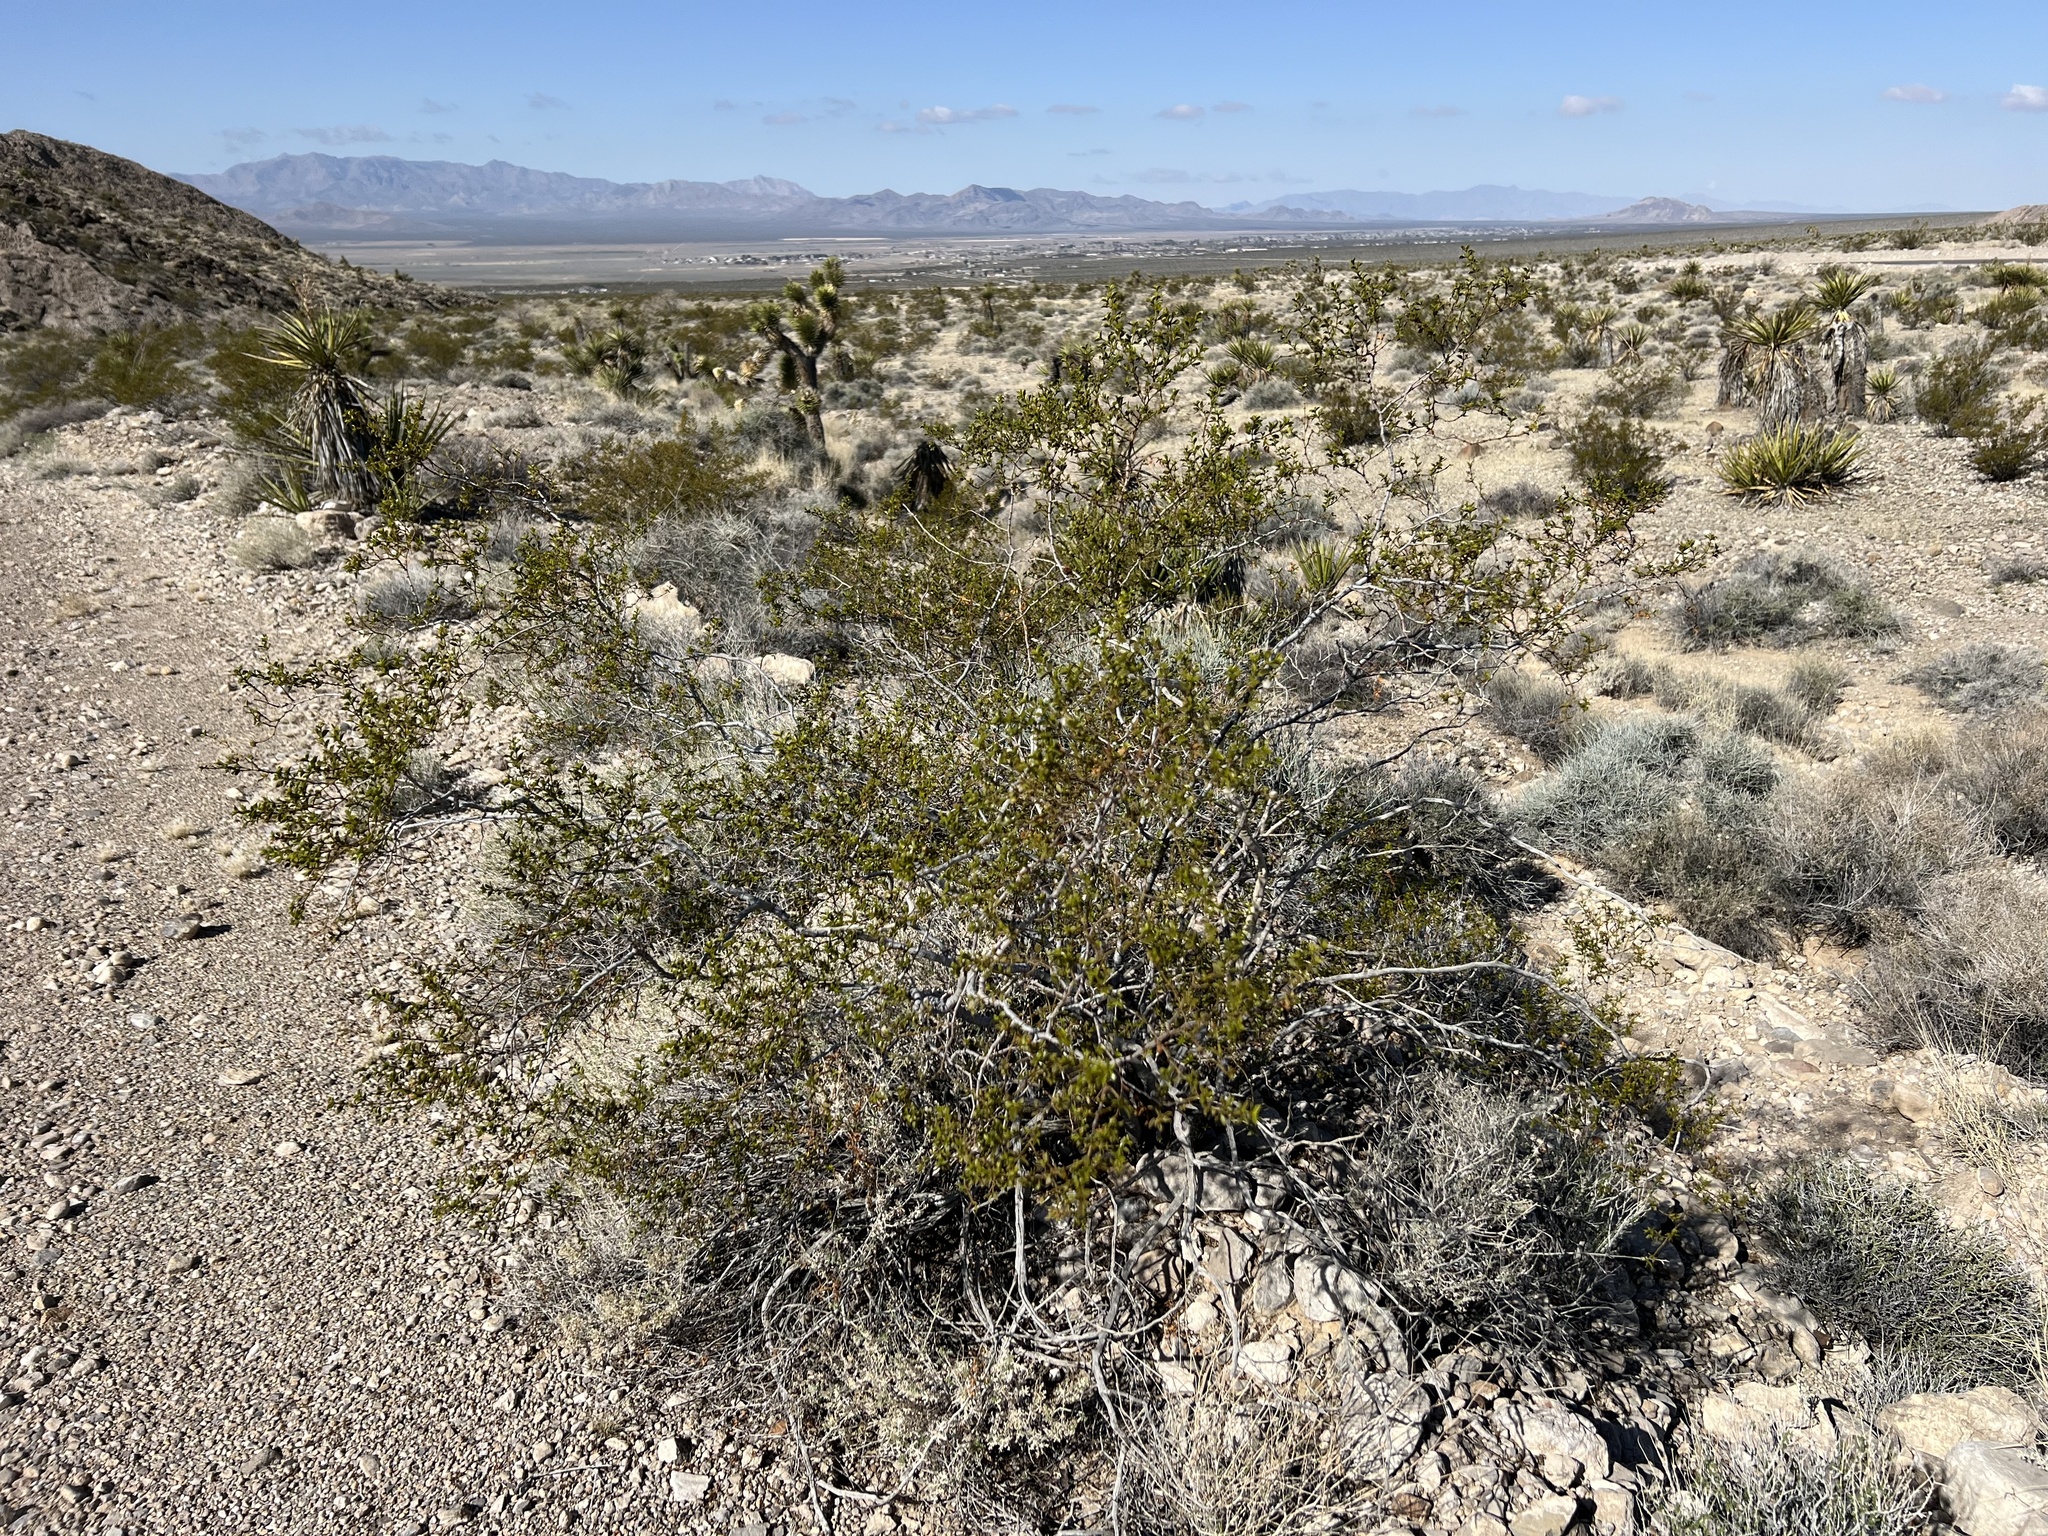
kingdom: Plantae
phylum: Tracheophyta
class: Magnoliopsida
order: Zygophyllales
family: Zygophyllaceae
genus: Larrea
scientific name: Larrea tridentata
